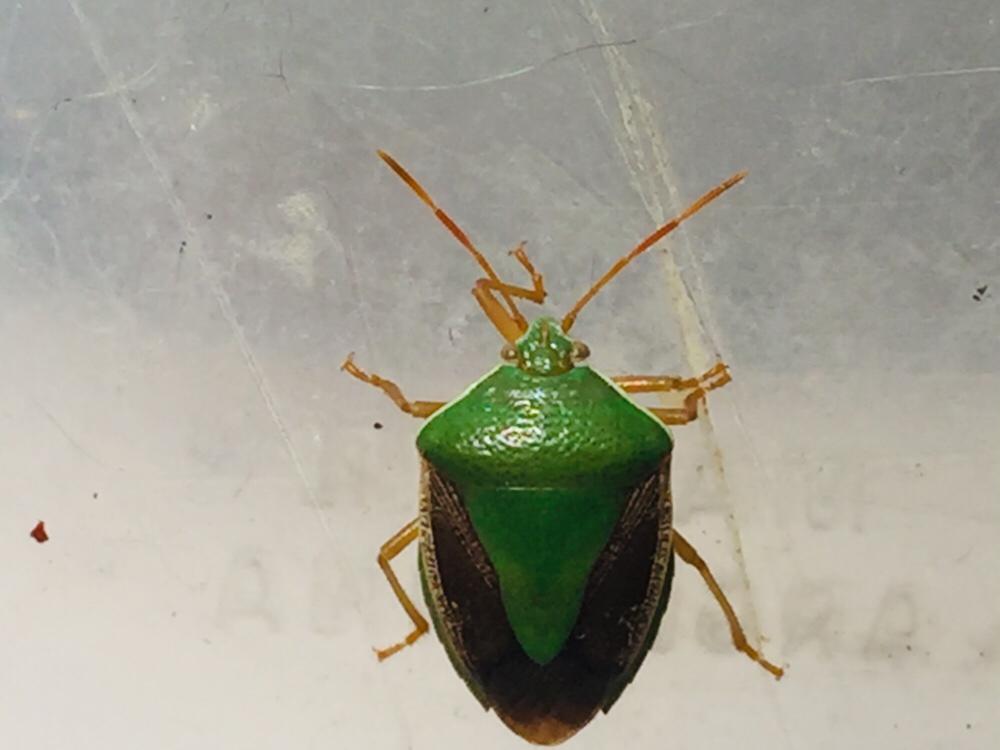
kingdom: Animalia
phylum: Arthropoda
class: Insecta
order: Hemiptera
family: Pentatomidae
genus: Edessa
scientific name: Edessa meditabunda
